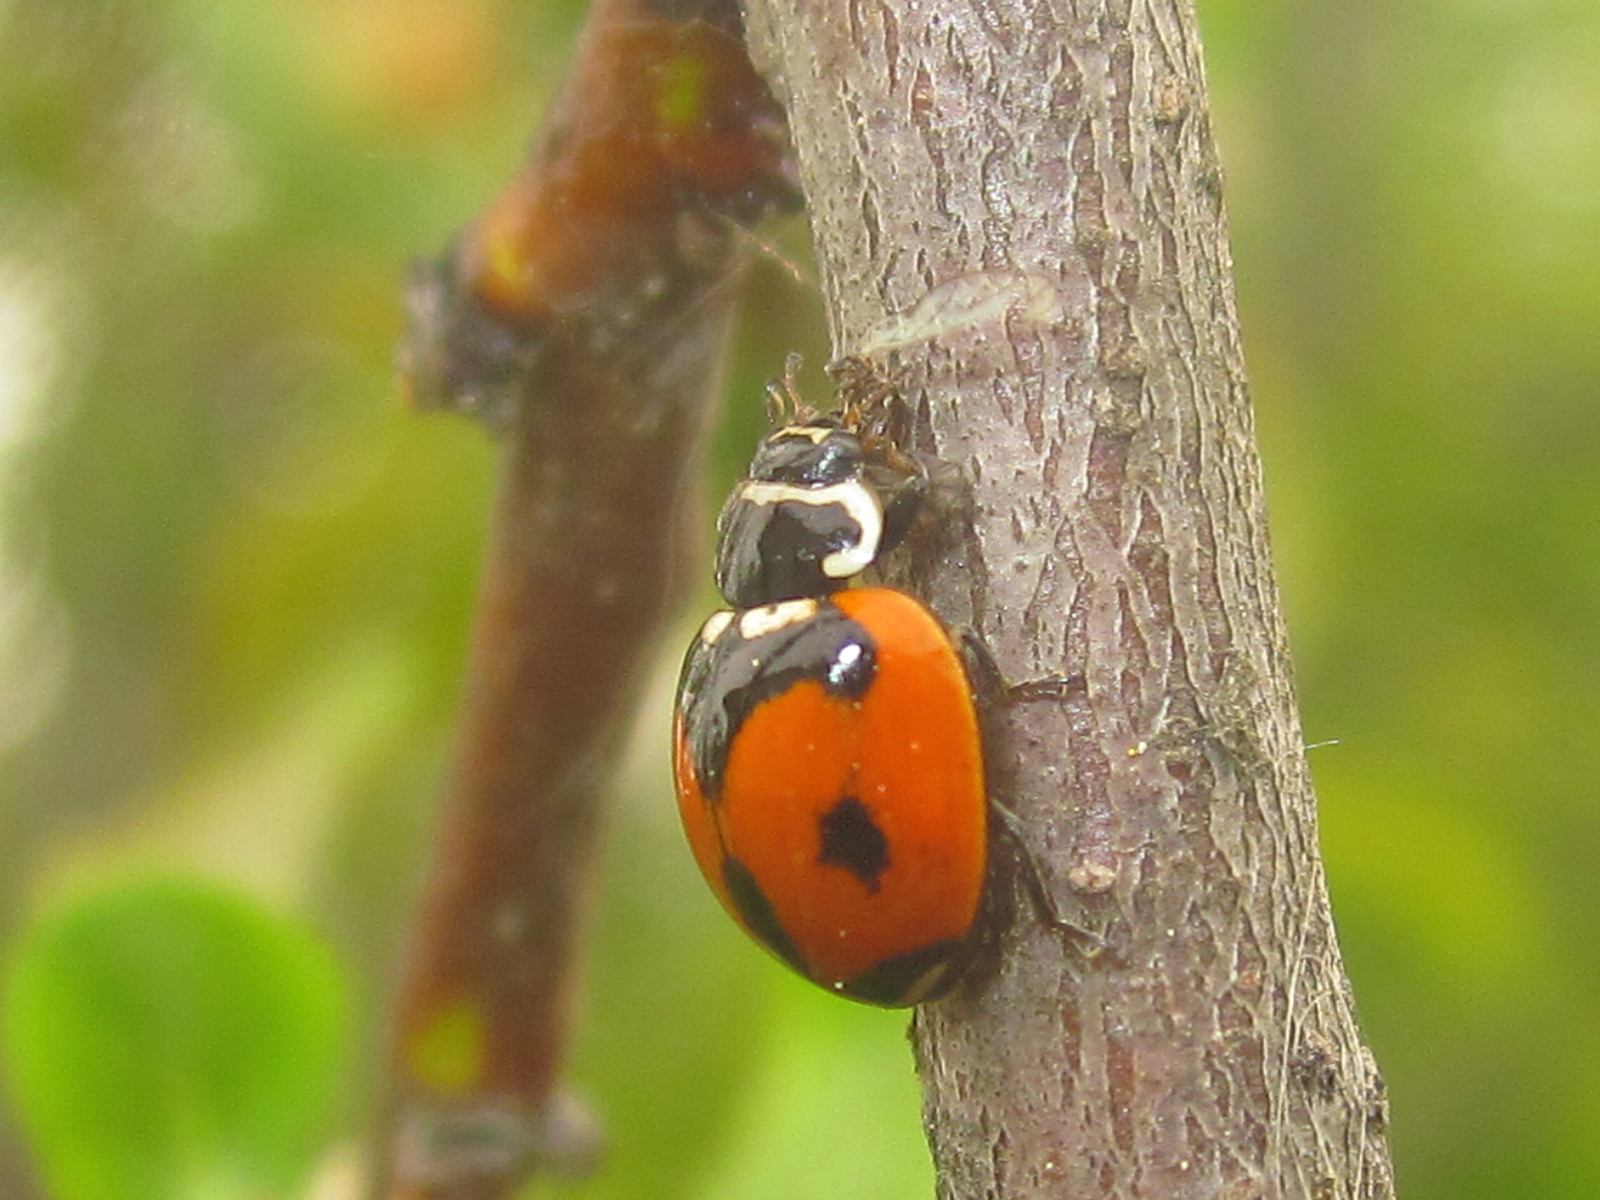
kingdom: Animalia
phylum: Arthropoda
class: Insecta
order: Coleoptera
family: Coccinellidae
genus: Adalia
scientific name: Adalia deficiens
